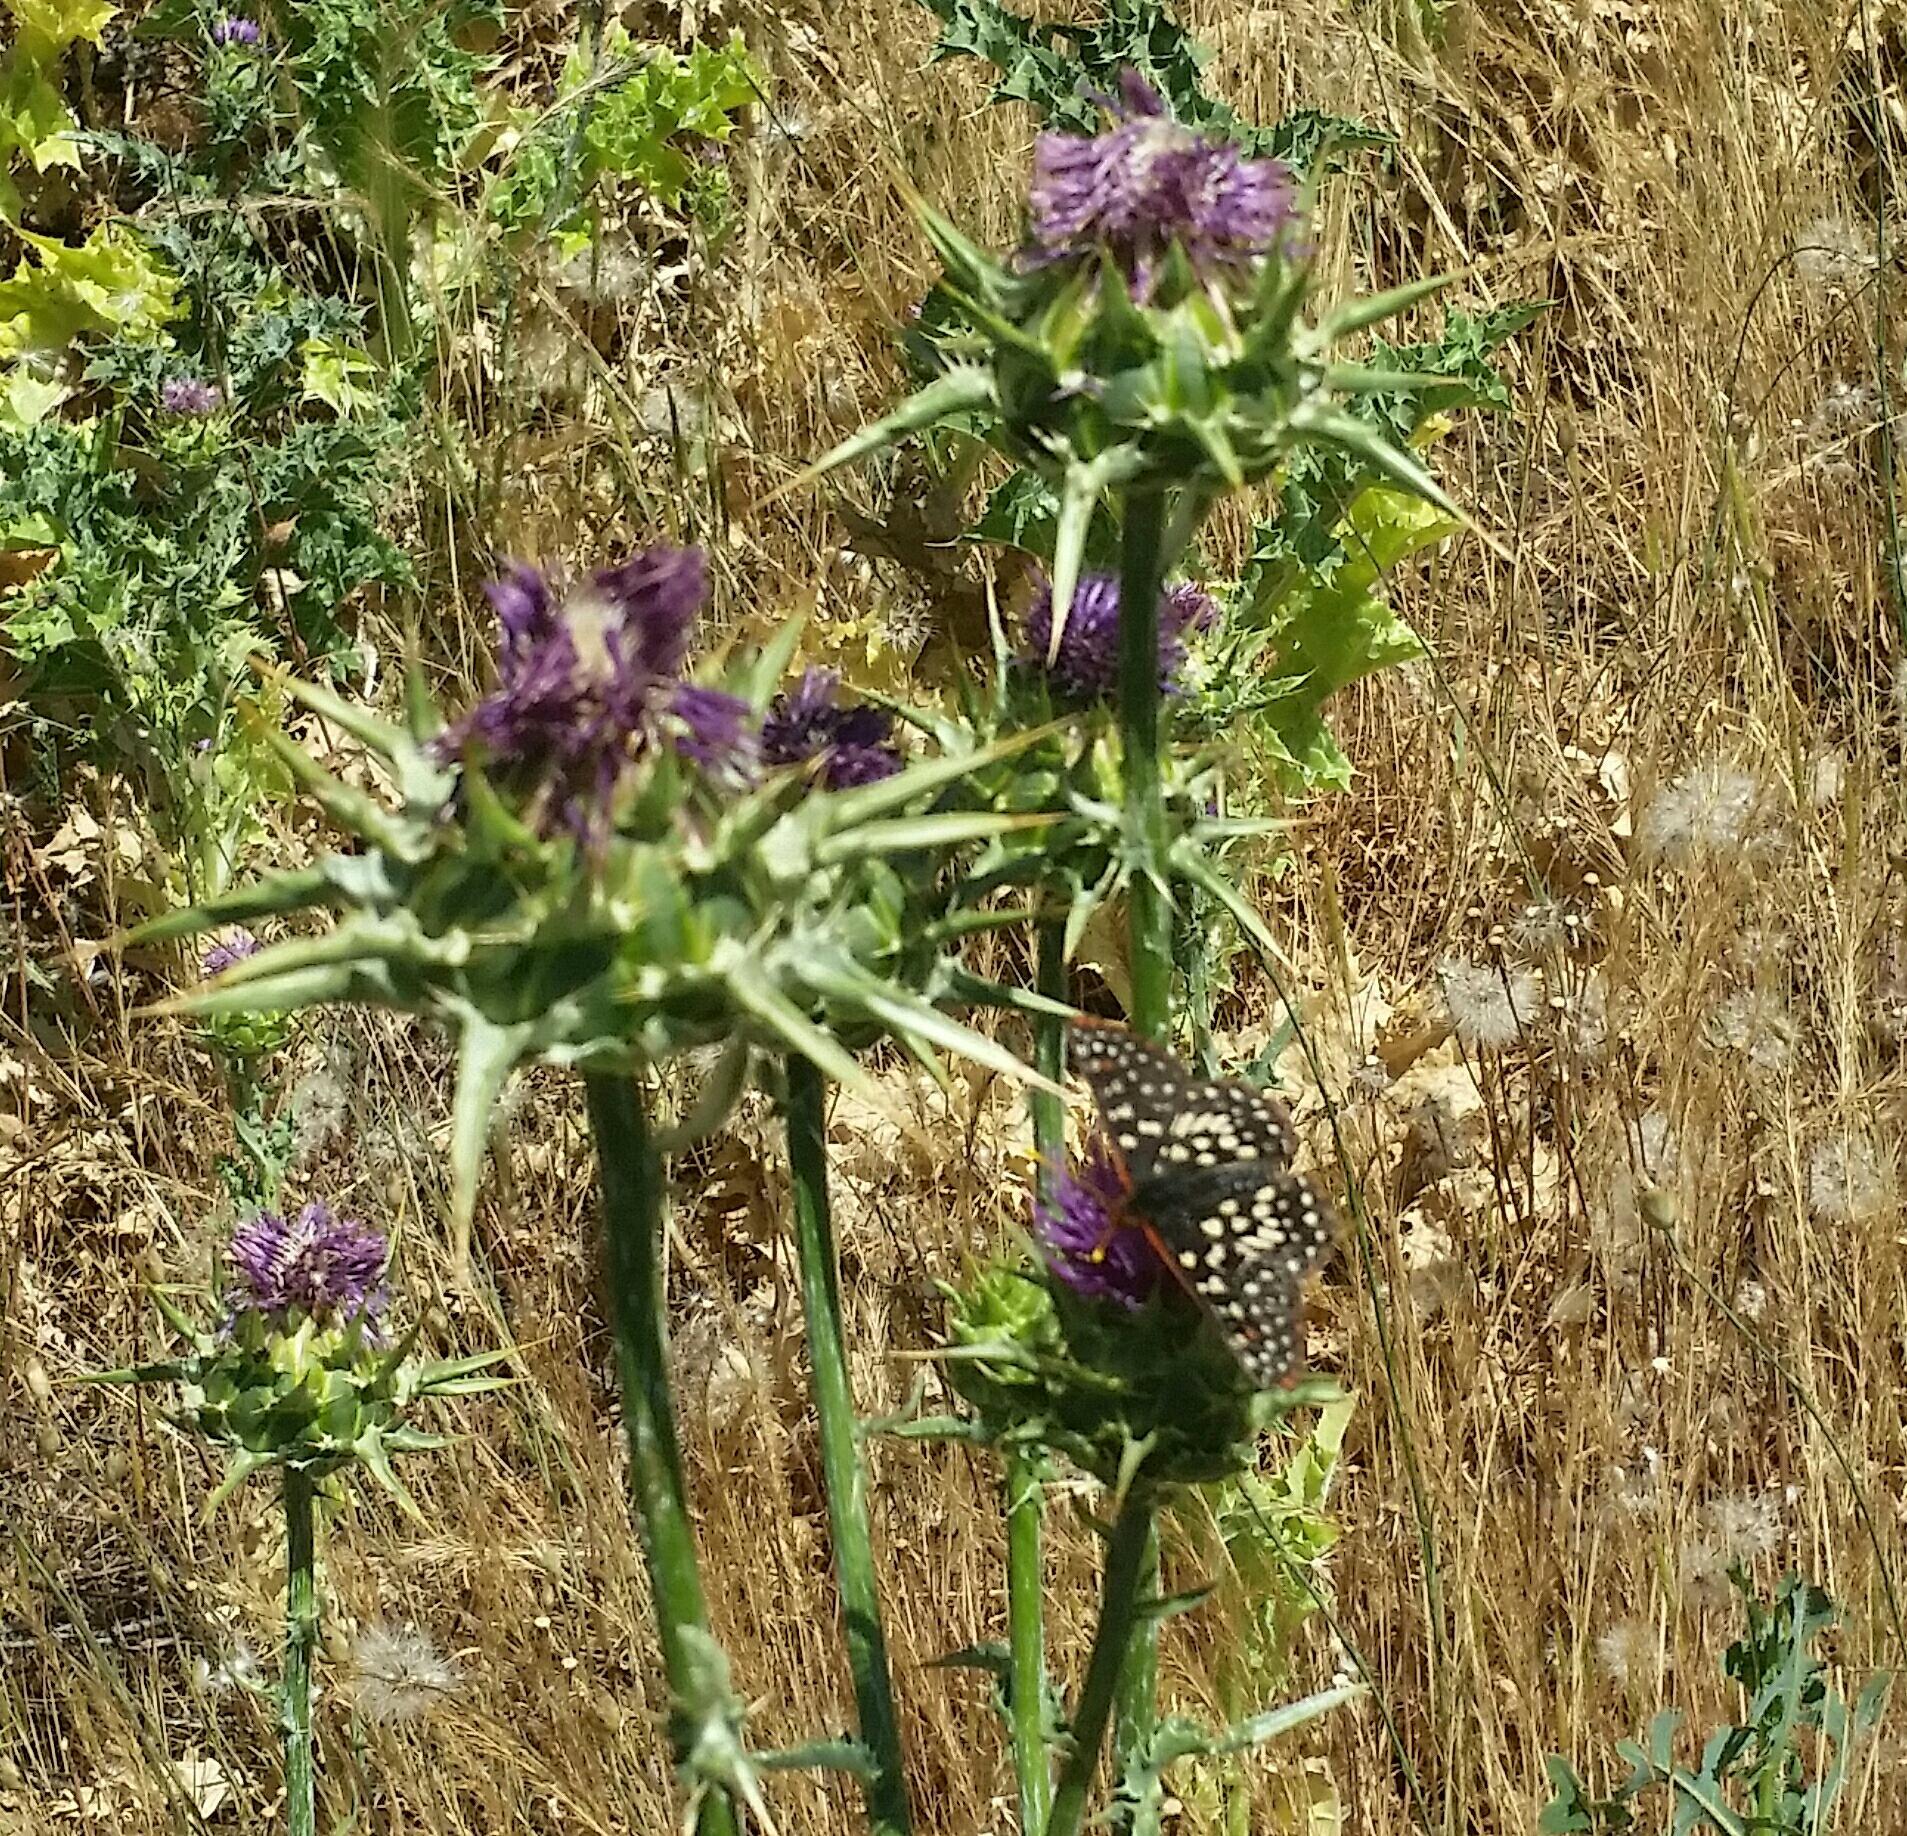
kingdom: Plantae
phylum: Tracheophyta
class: Magnoliopsida
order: Asterales
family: Asteraceae
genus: Silybum
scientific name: Silybum marianum
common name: Milk thistle
